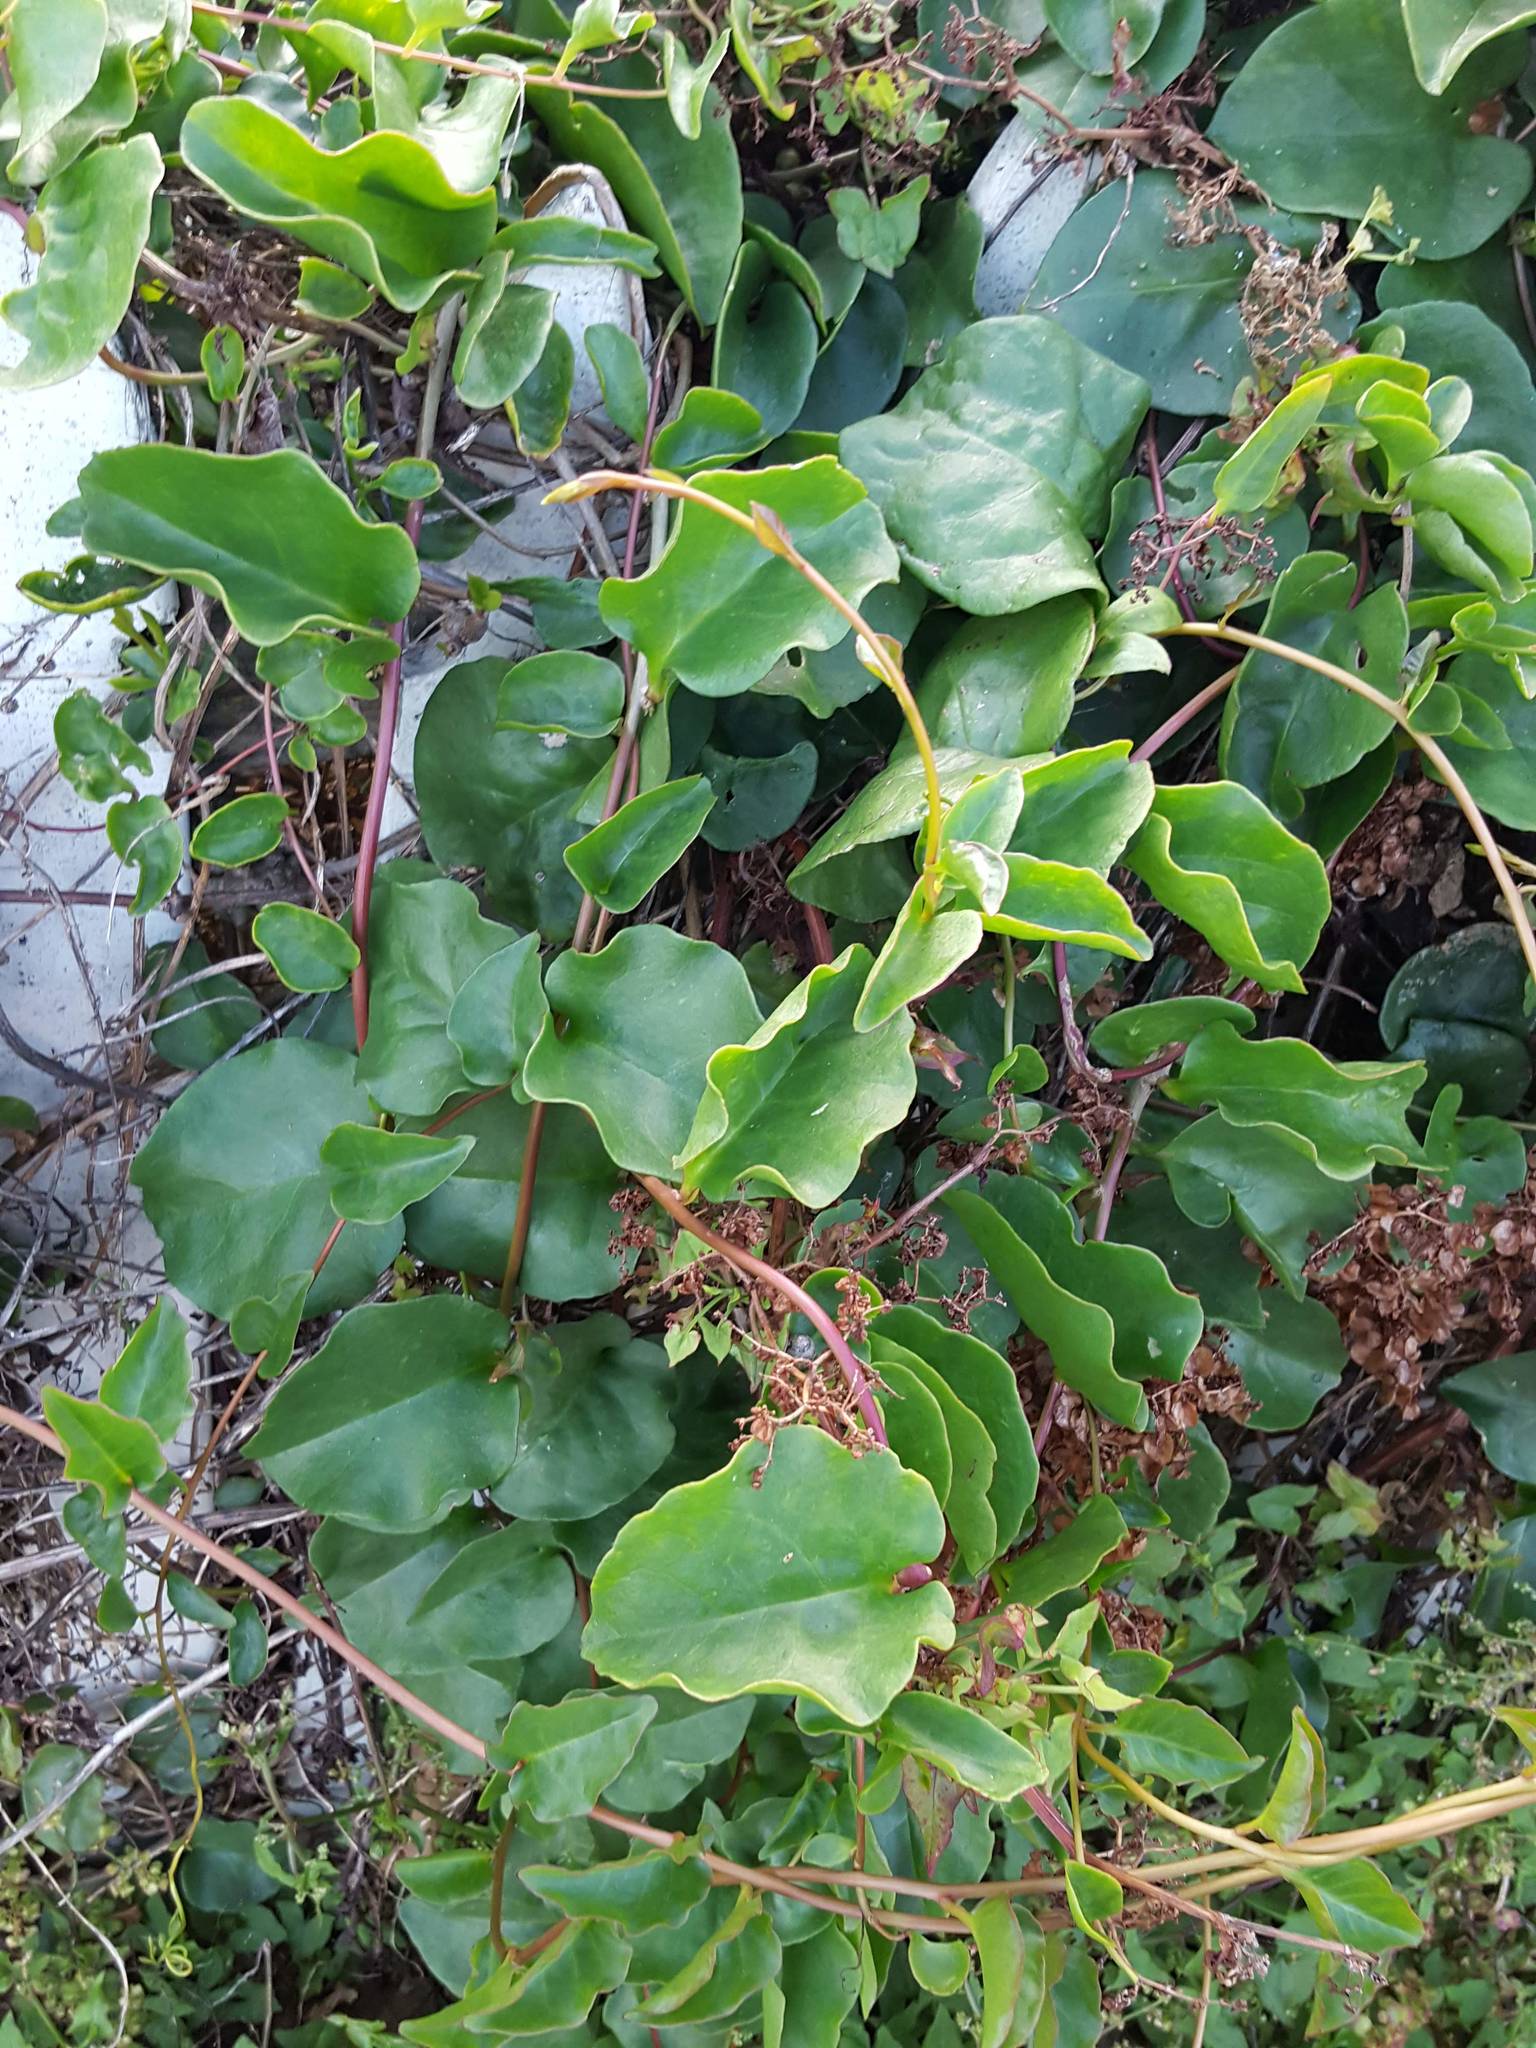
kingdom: Plantae
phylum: Tracheophyta
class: Magnoliopsida
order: Caryophyllales
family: Basellaceae
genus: Anredera
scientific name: Anredera cordifolia
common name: Heartleaf madeiravine
